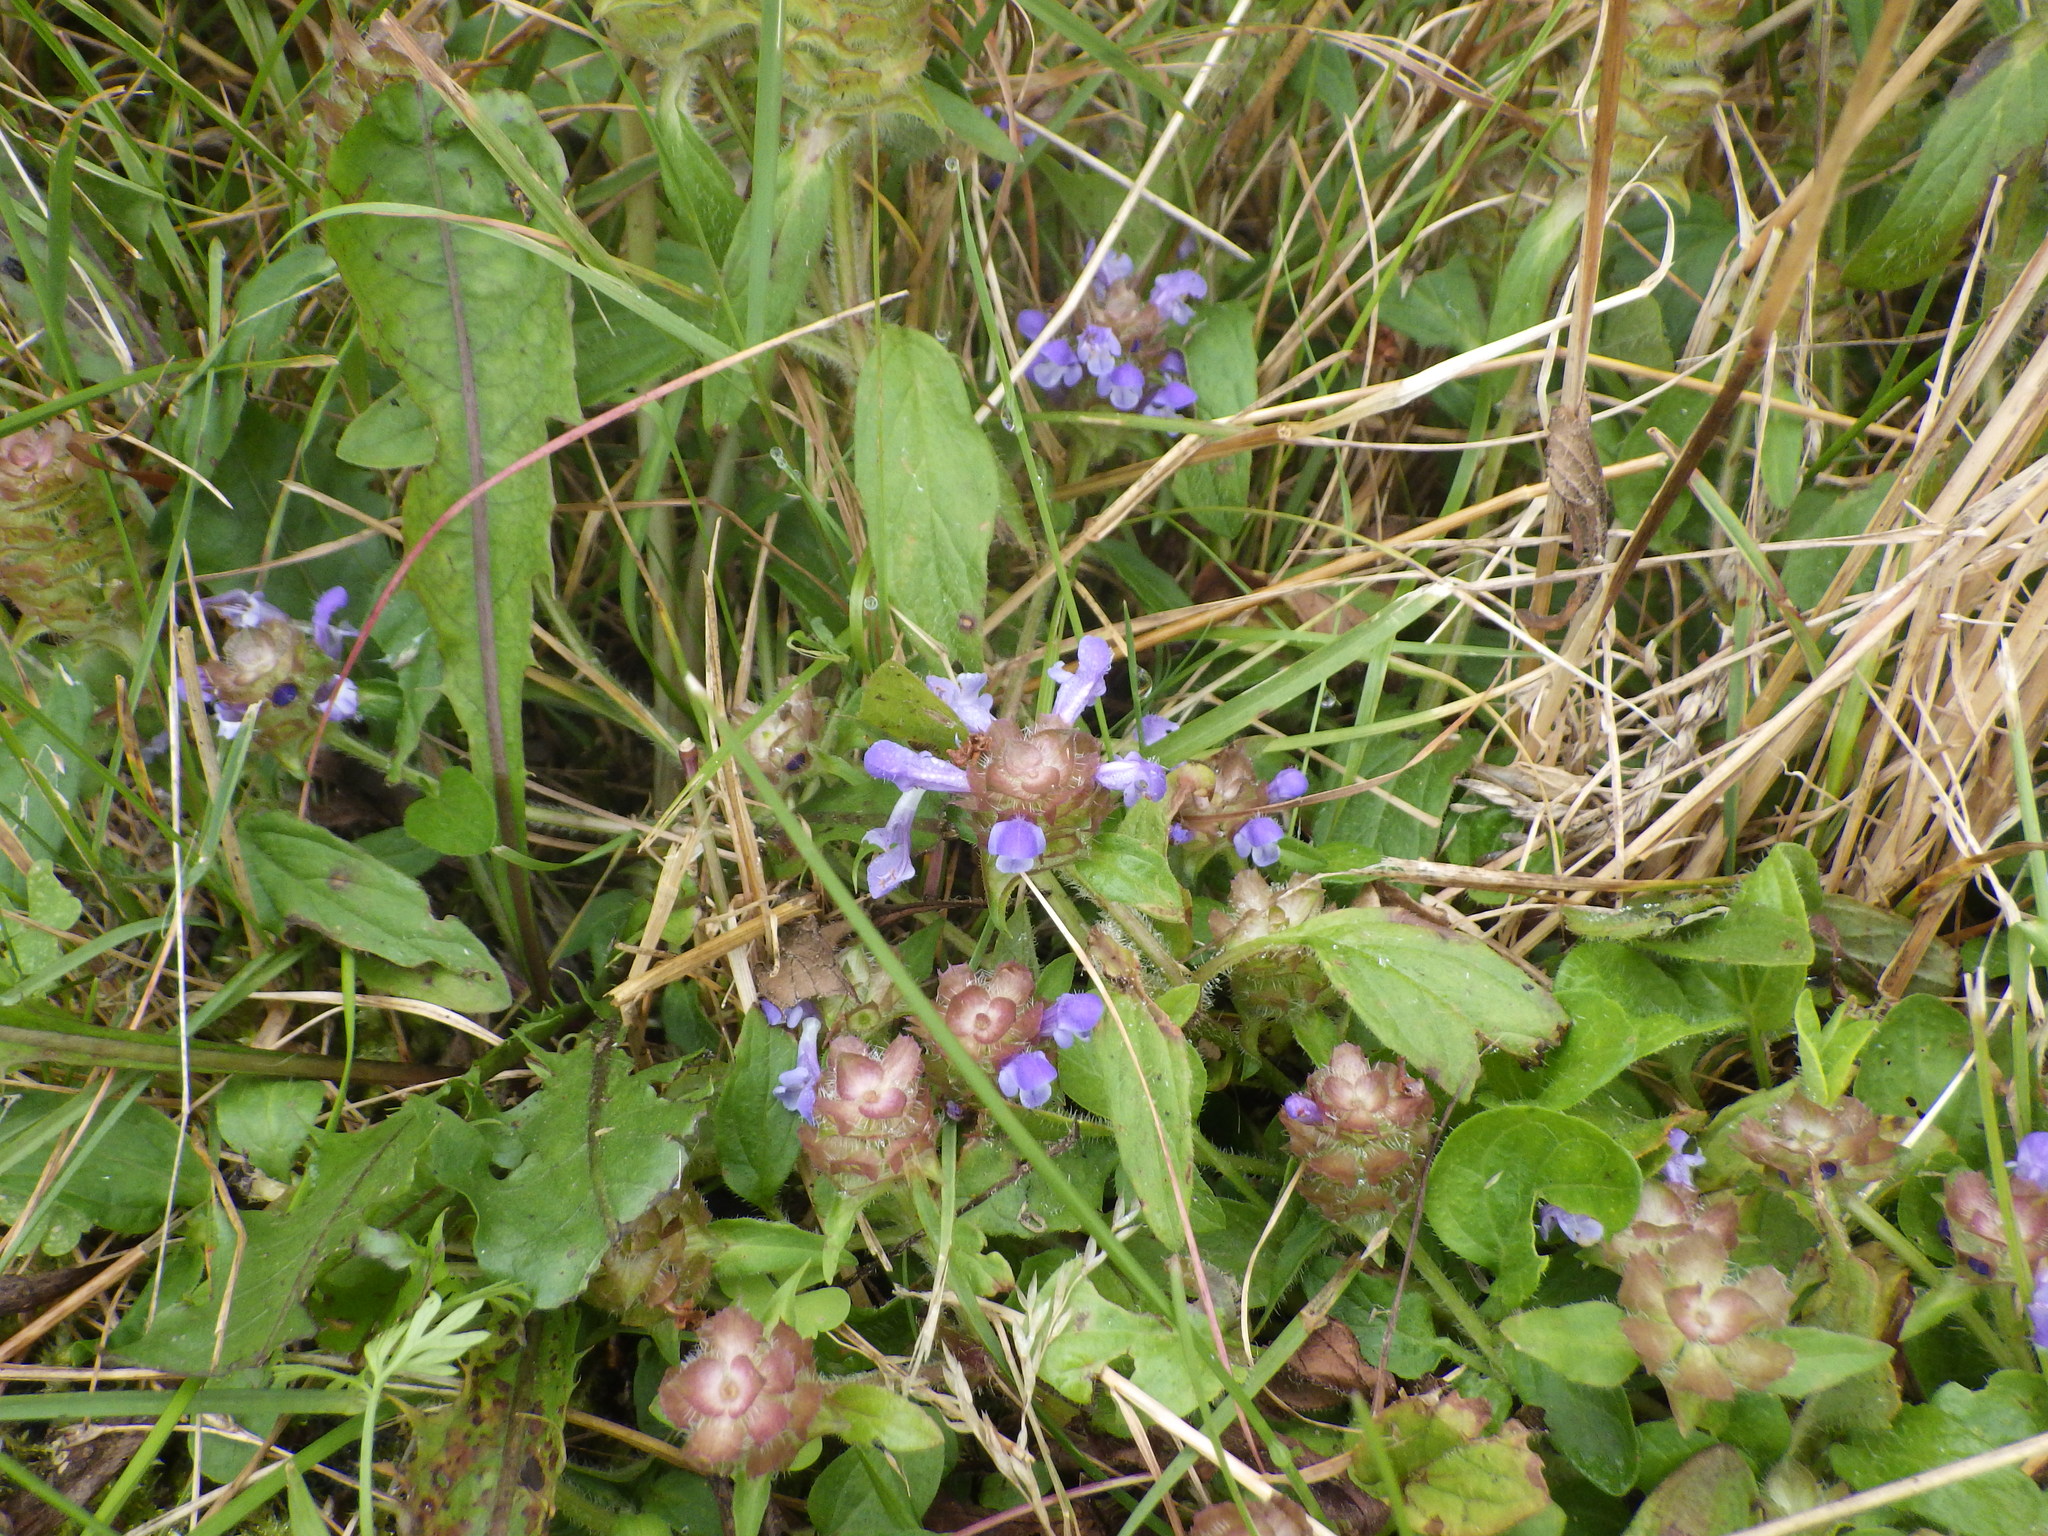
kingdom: Plantae
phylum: Tracheophyta
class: Magnoliopsida
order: Lamiales
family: Lamiaceae
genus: Prunella
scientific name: Prunella vulgaris
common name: Heal-all
